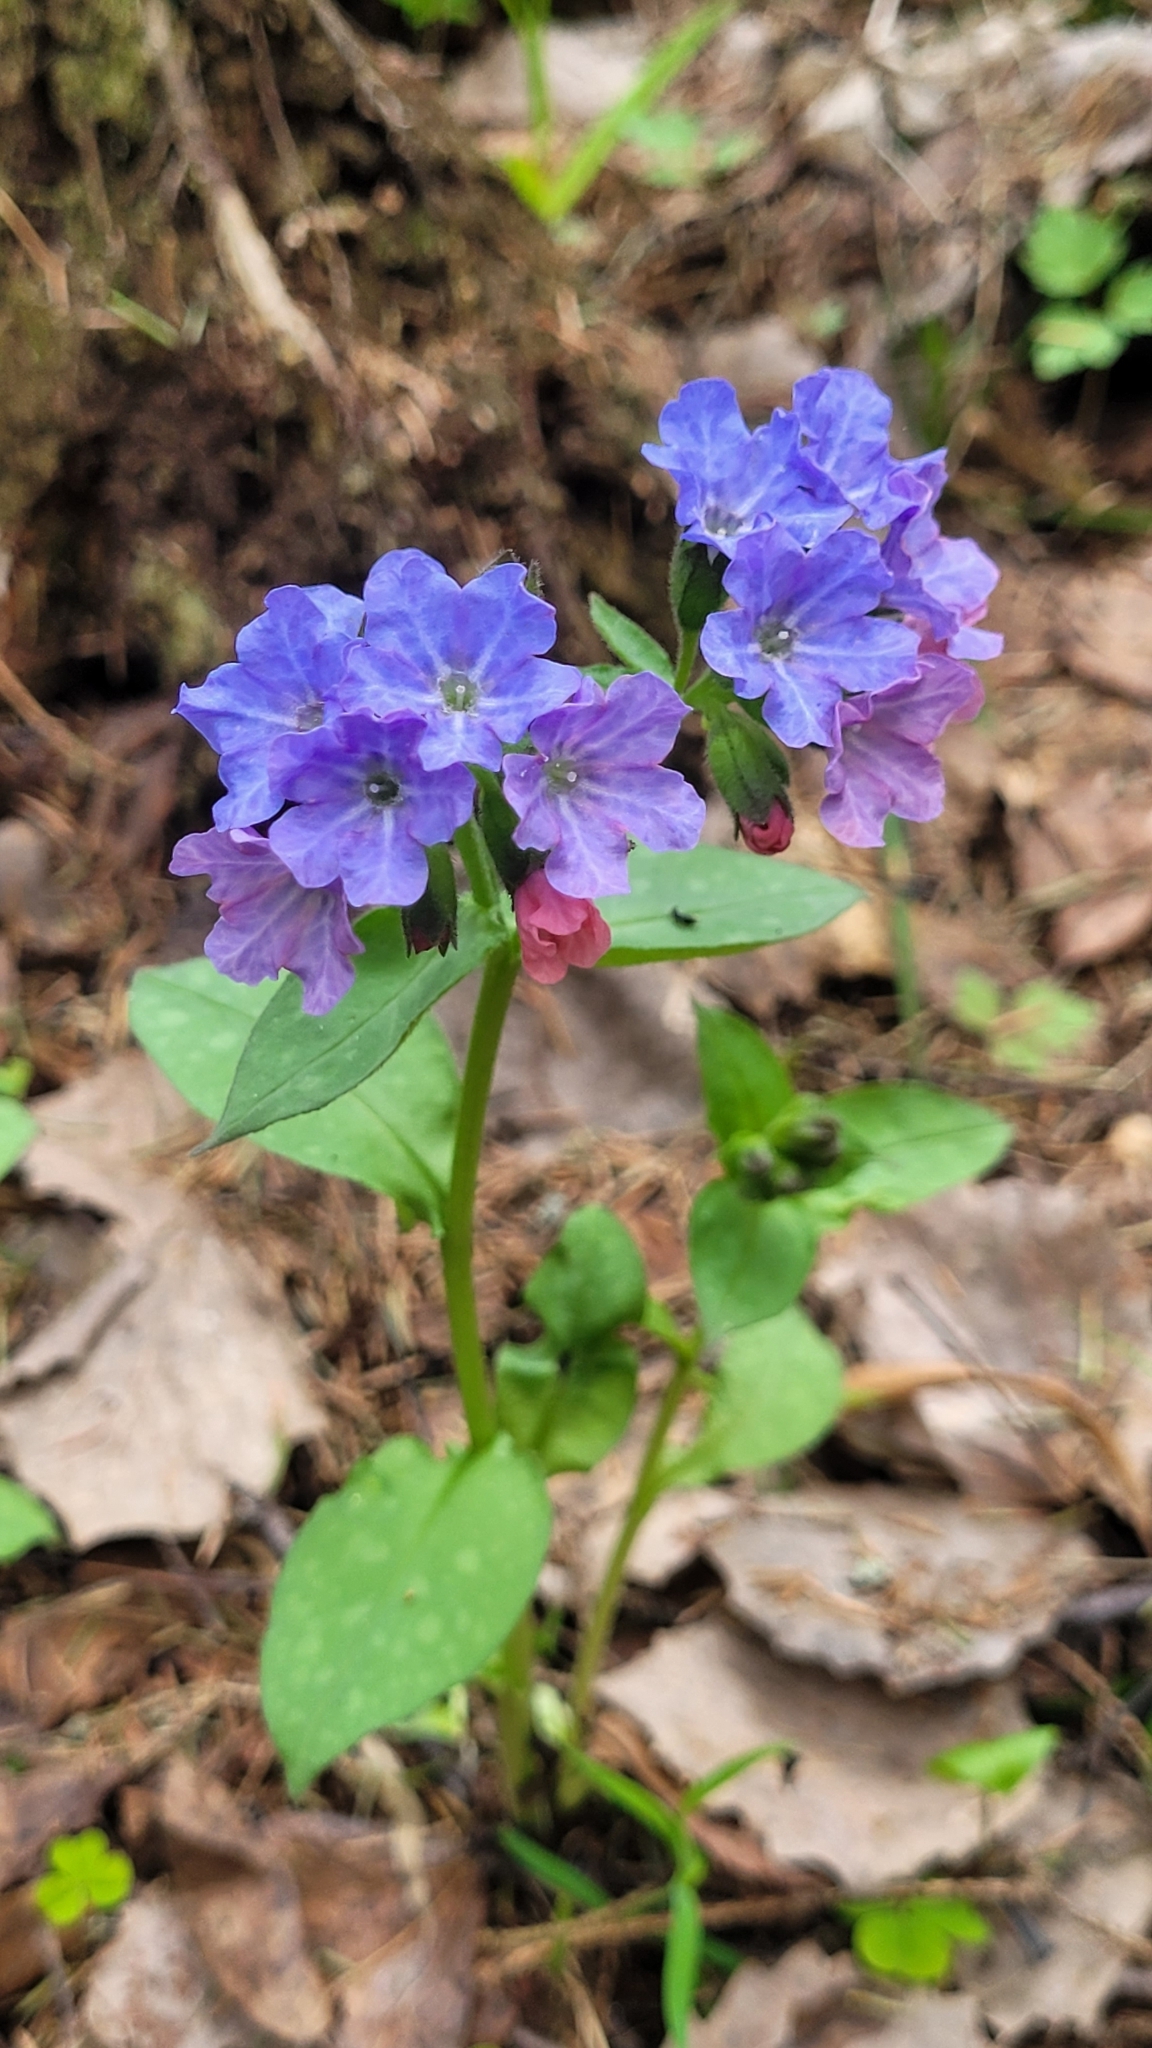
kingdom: Plantae
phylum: Tracheophyta
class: Magnoliopsida
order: Boraginales
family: Boraginaceae
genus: Pulmonaria
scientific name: Pulmonaria obscura
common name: Suffolk lungwort
